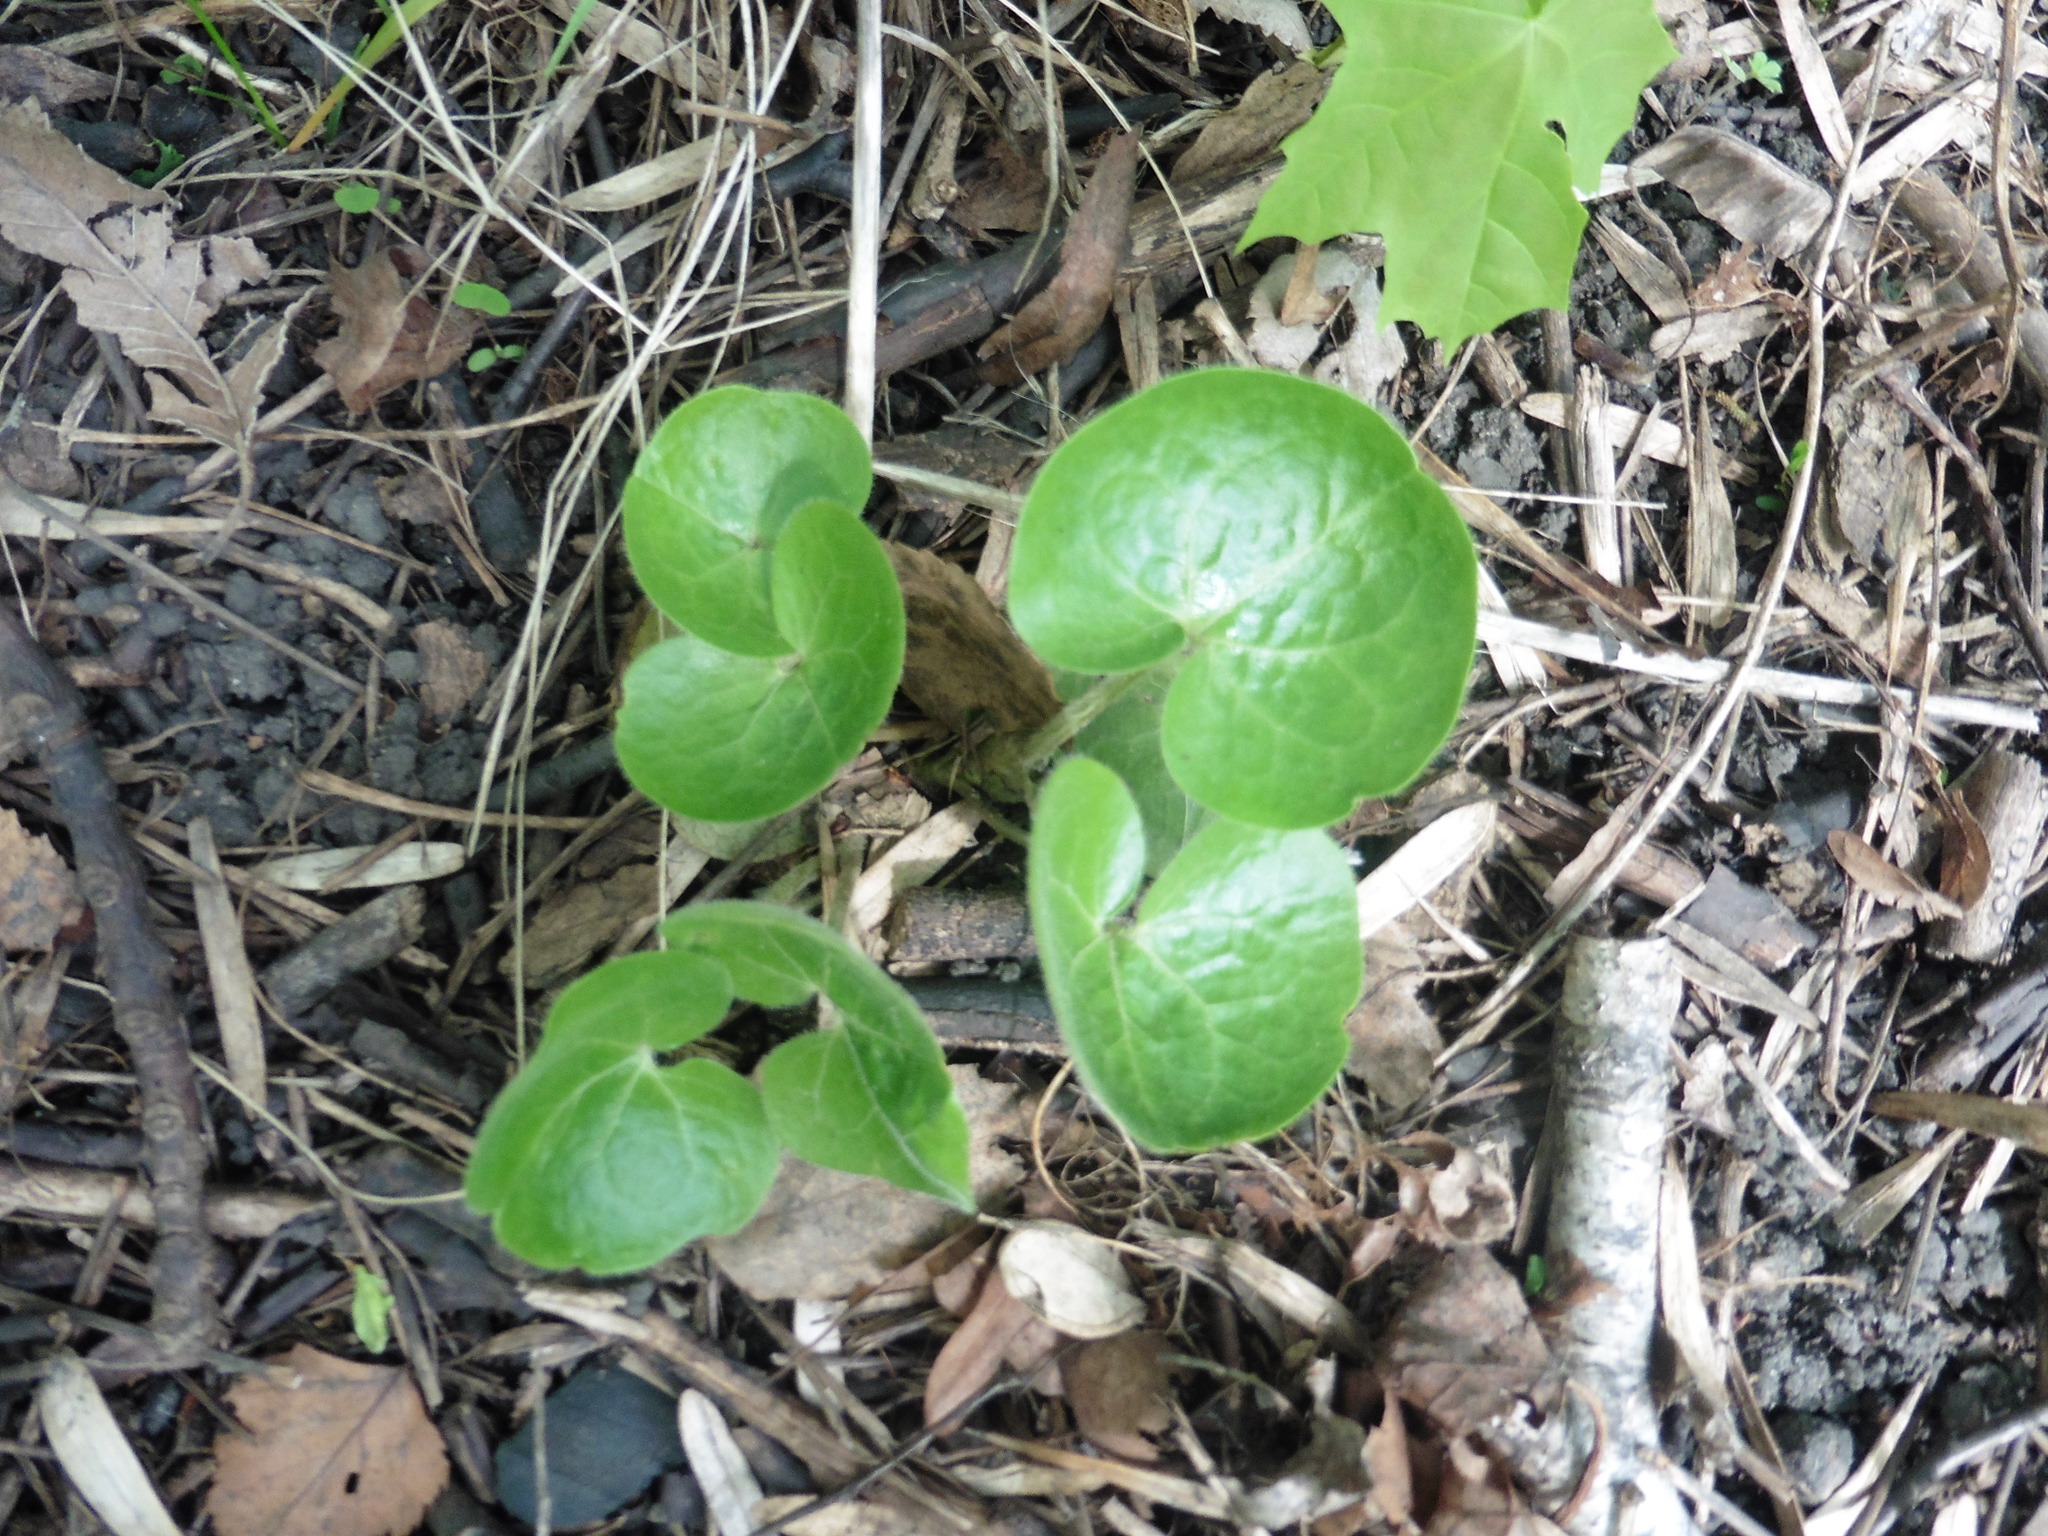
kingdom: Plantae
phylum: Tracheophyta
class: Magnoliopsida
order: Piperales
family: Aristolochiaceae
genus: Asarum
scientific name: Asarum europaeum
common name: Asarabacca
